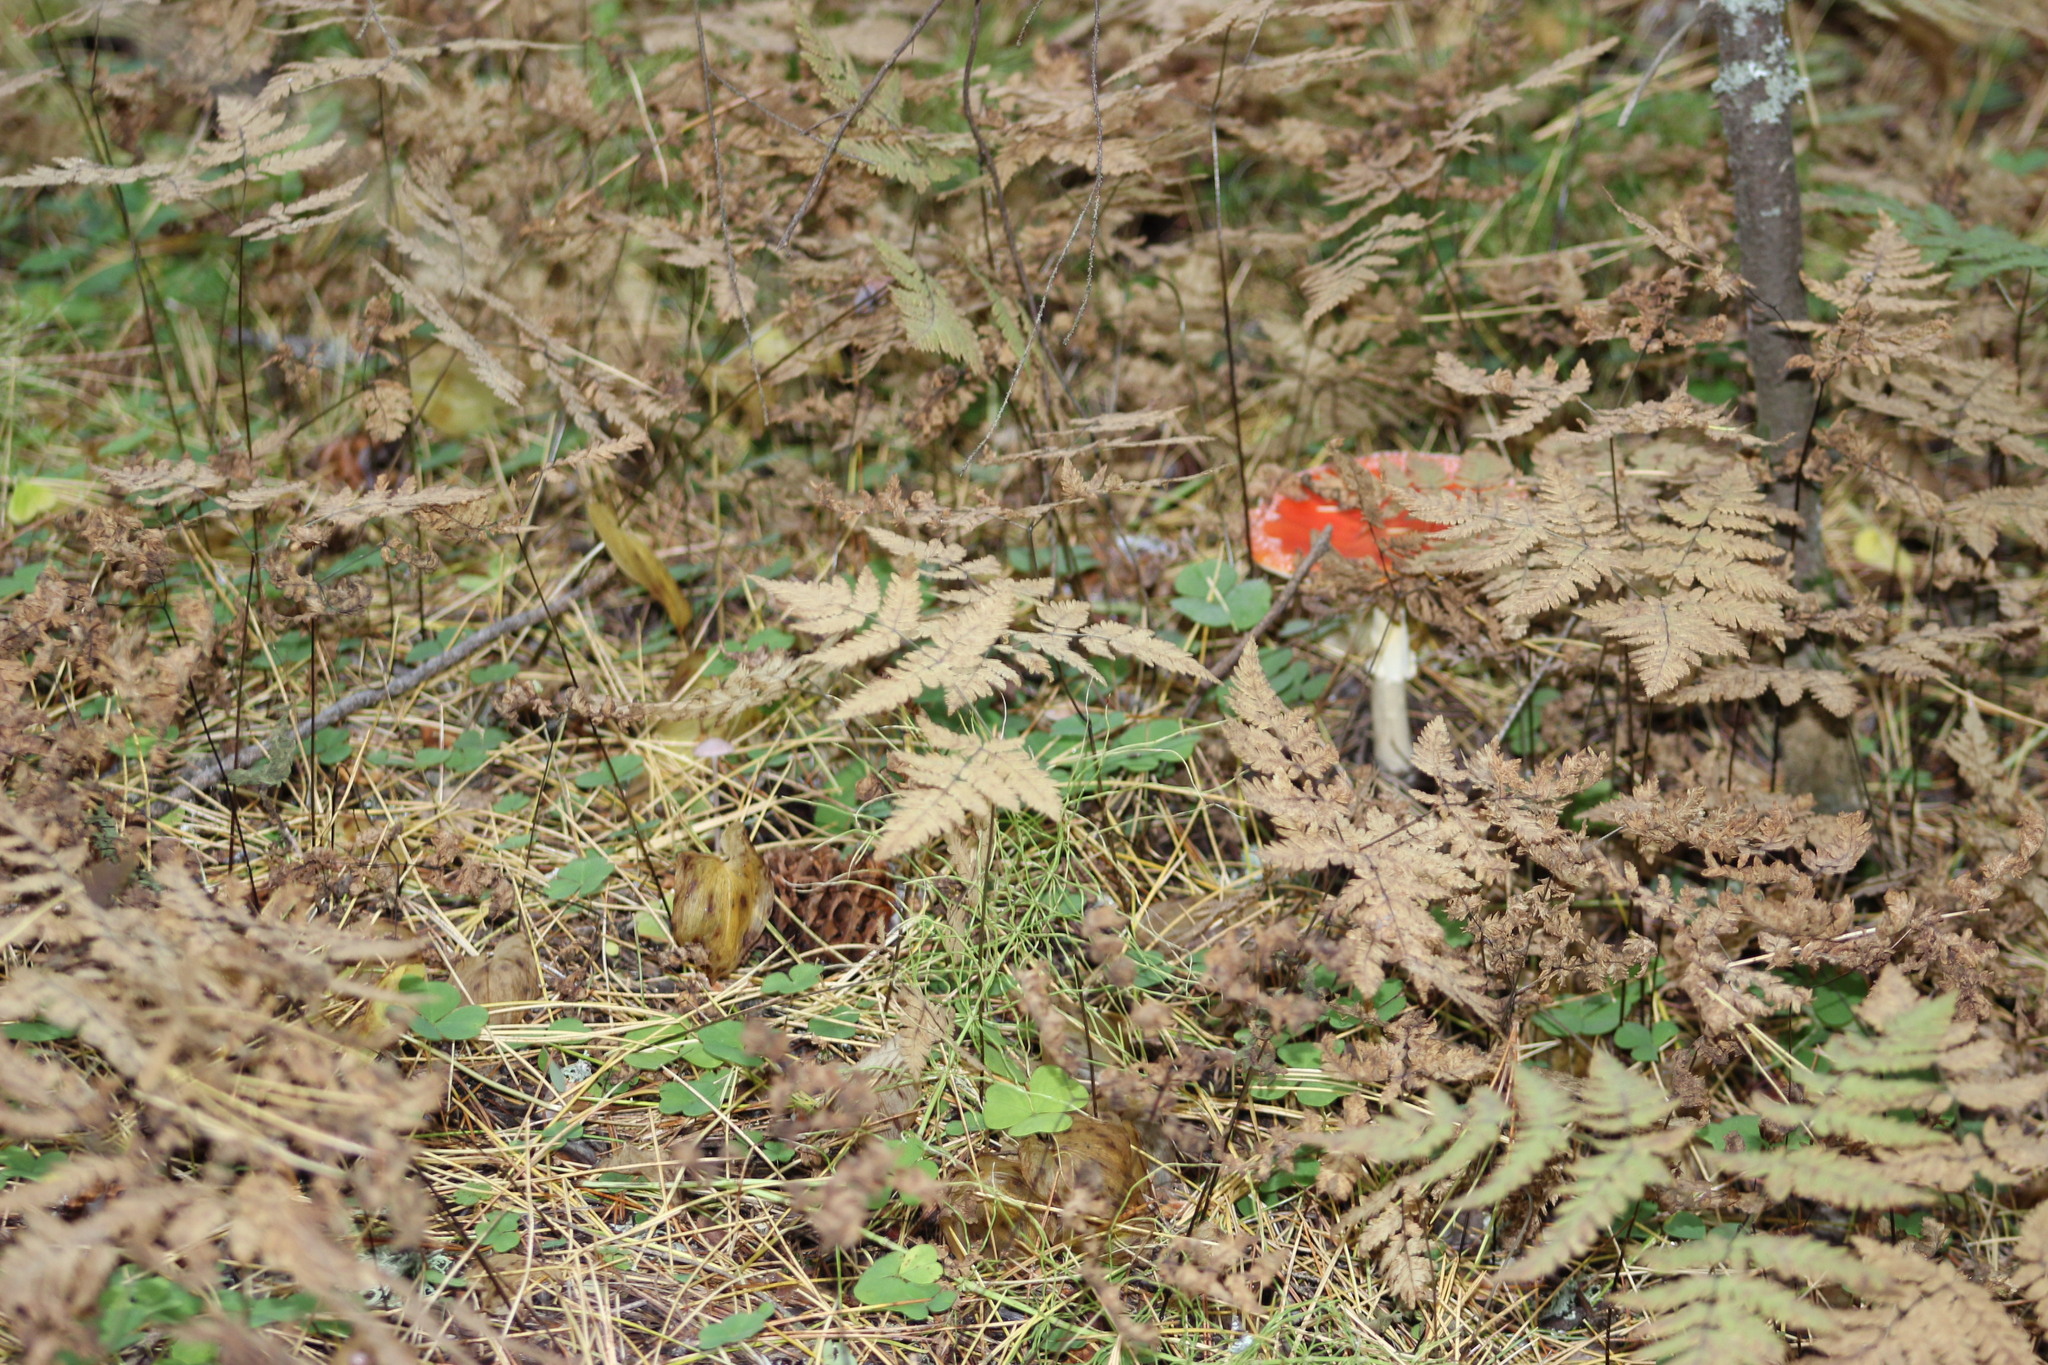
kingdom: Fungi
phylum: Basidiomycota
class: Agaricomycetes
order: Agaricales
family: Amanitaceae
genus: Amanita
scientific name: Amanita muscaria
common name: Fly agaric
